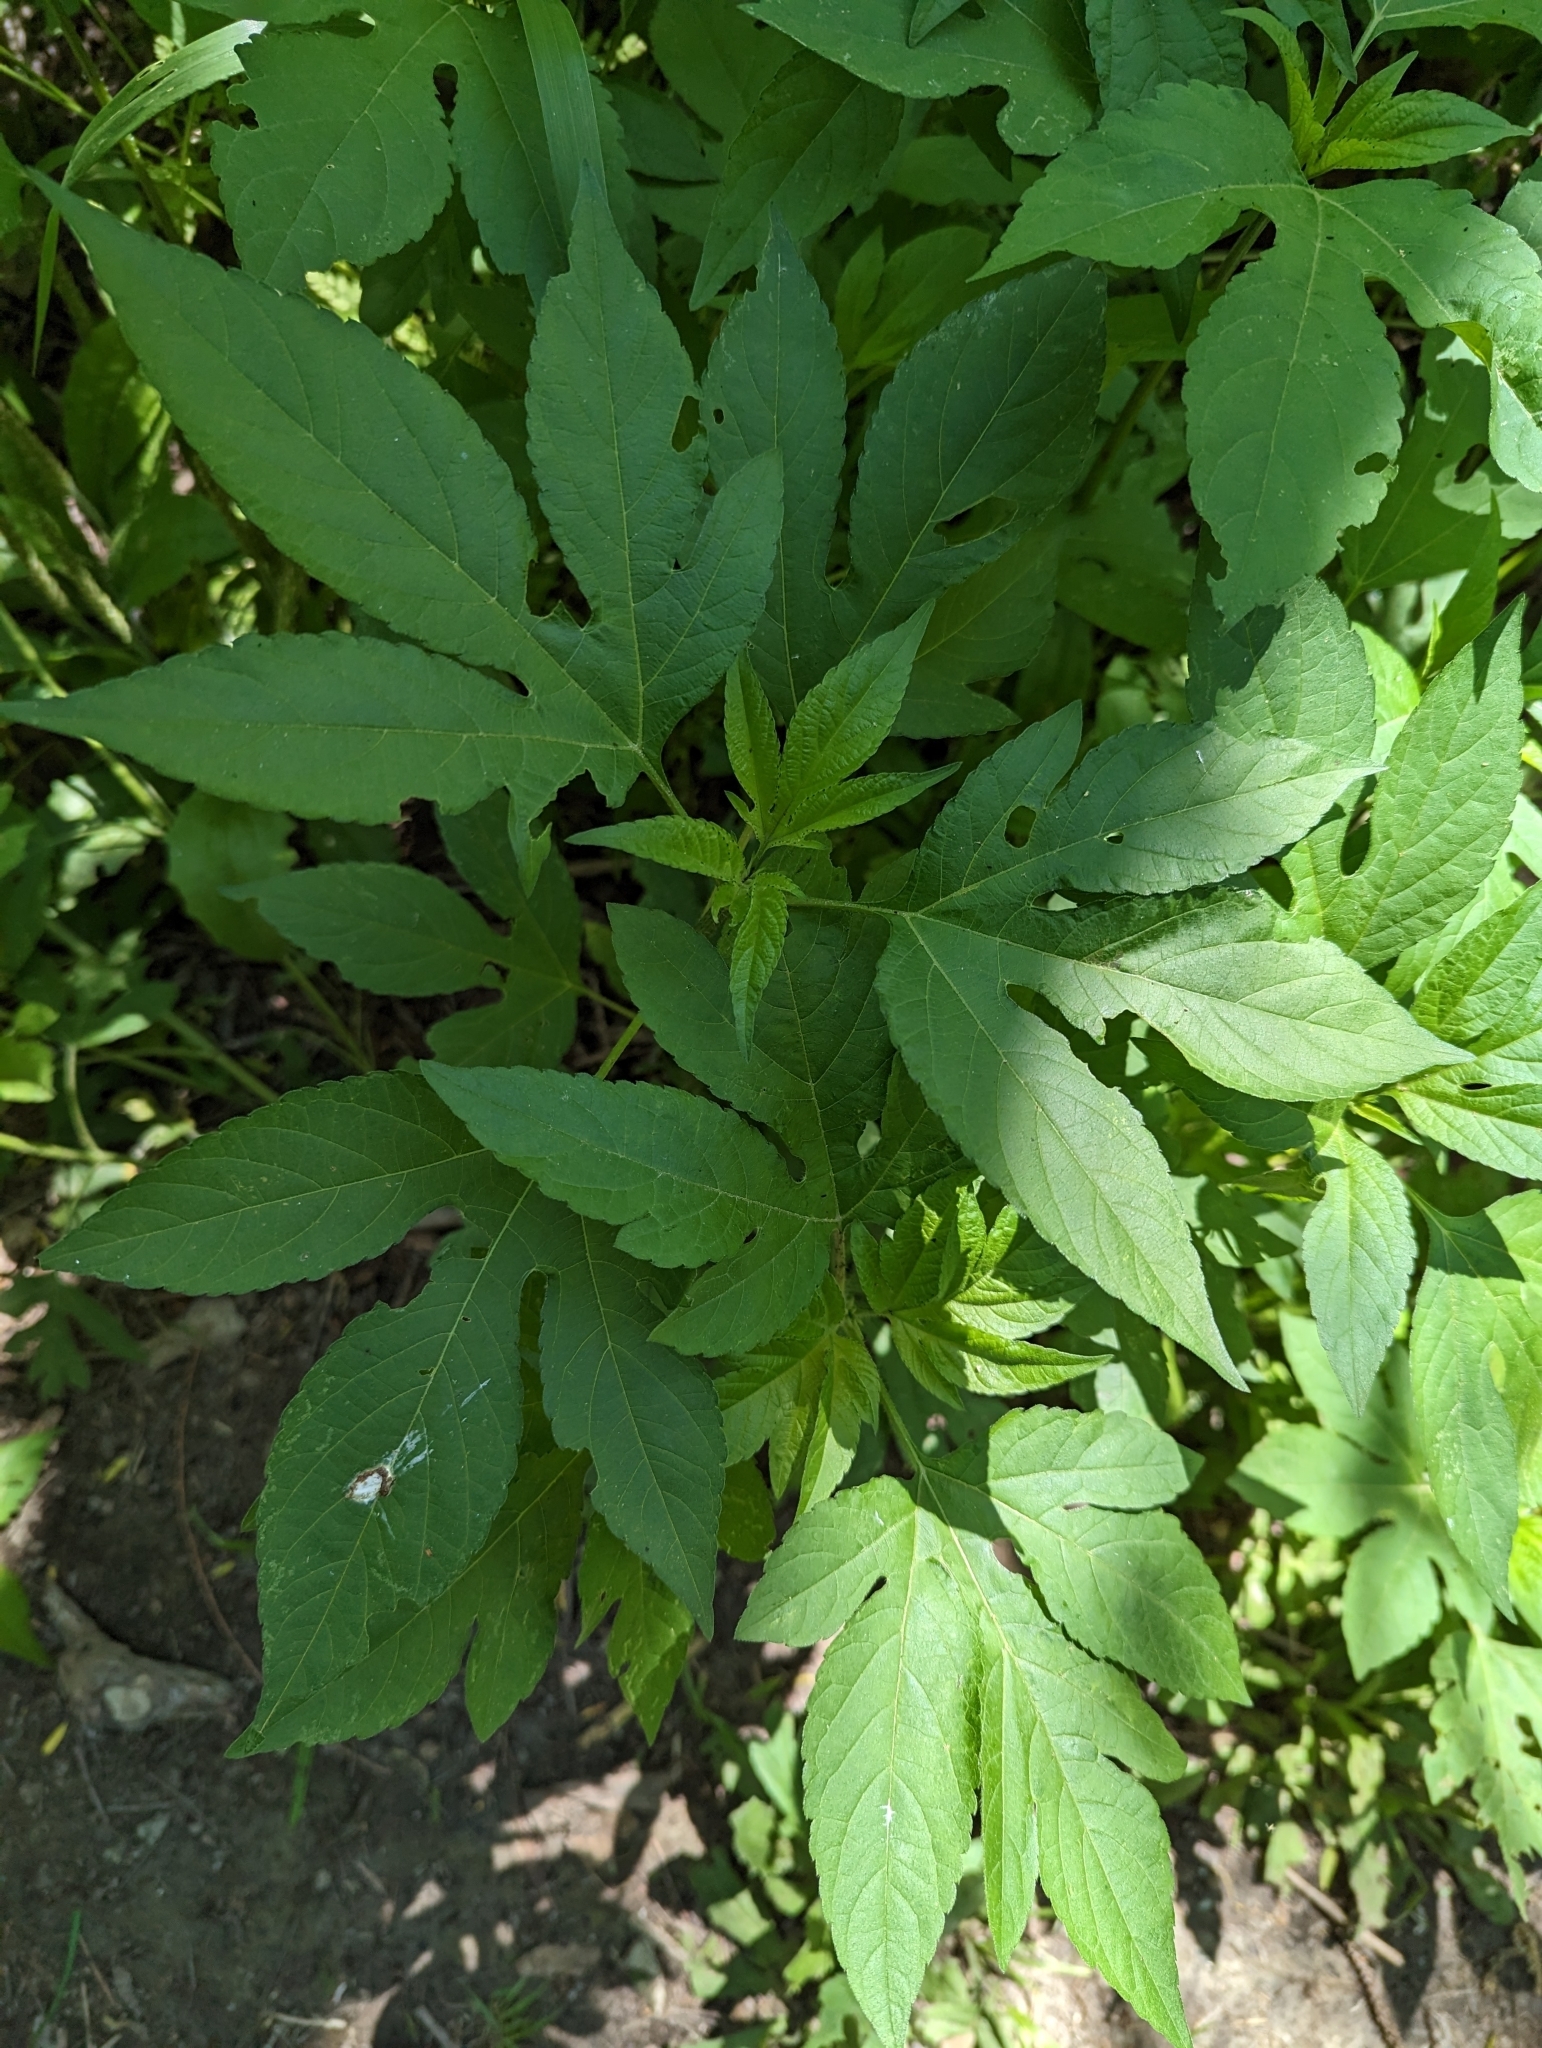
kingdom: Plantae
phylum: Tracheophyta
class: Magnoliopsida
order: Asterales
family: Asteraceae
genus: Ambrosia
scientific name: Ambrosia trifida
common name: Giant ragweed
